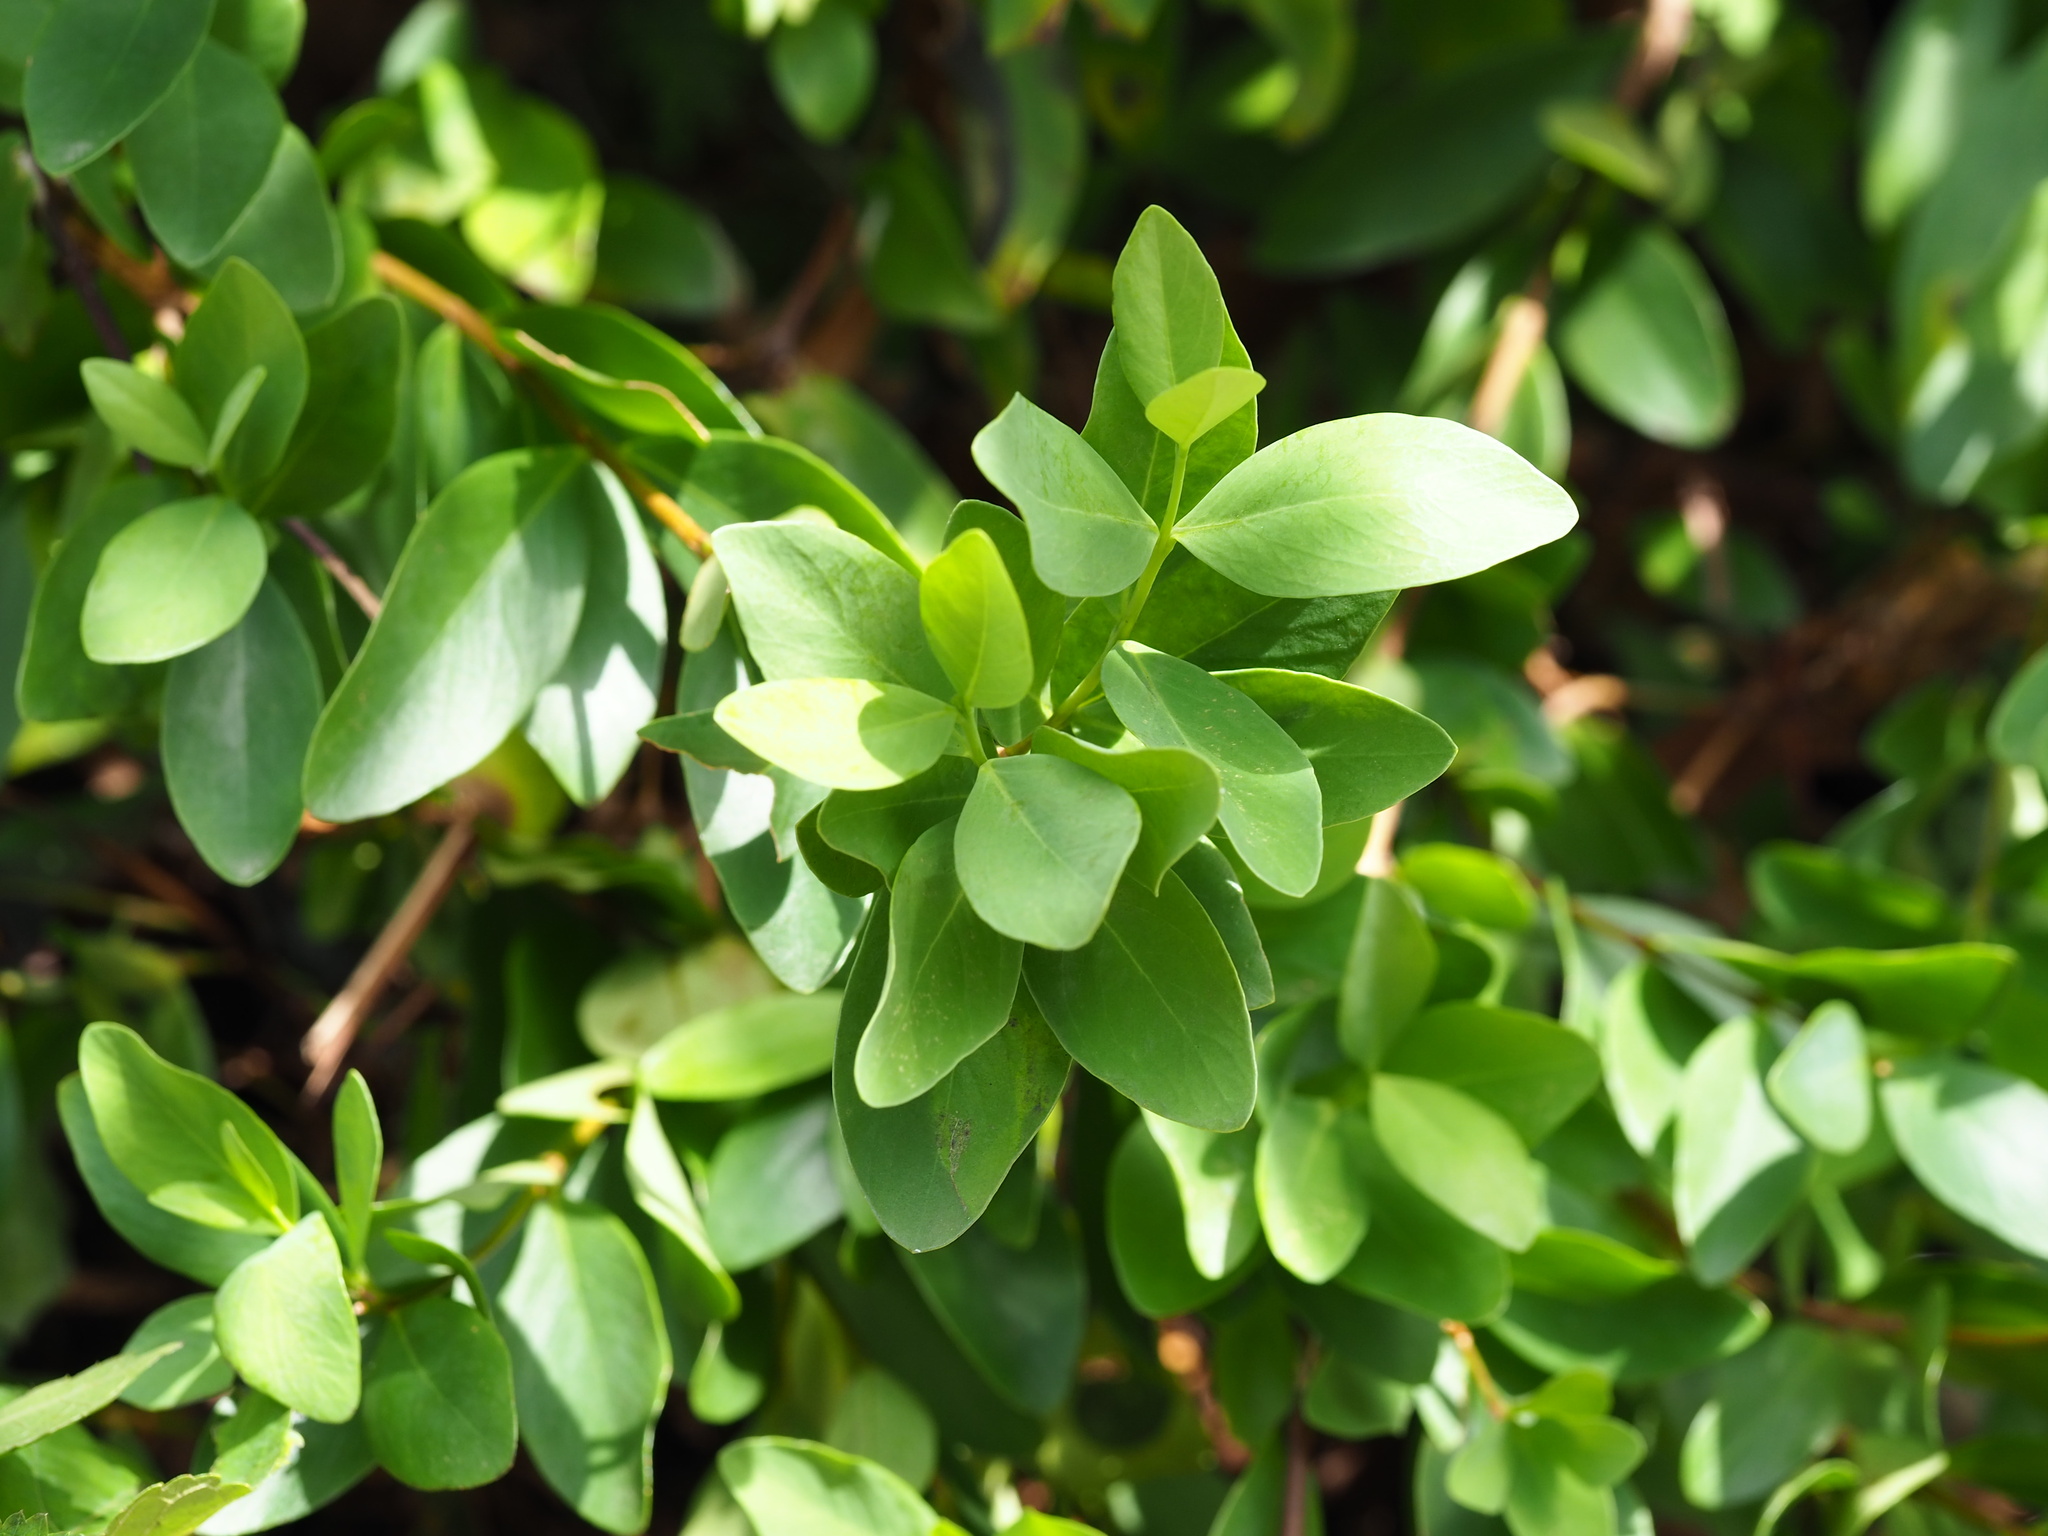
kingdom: Plantae
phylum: Tracheophyta
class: Magnoliopsida
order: Malvales
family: Thymelaeaceae
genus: Wikstroemia
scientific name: Wikstroemia indica
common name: Tiebush
